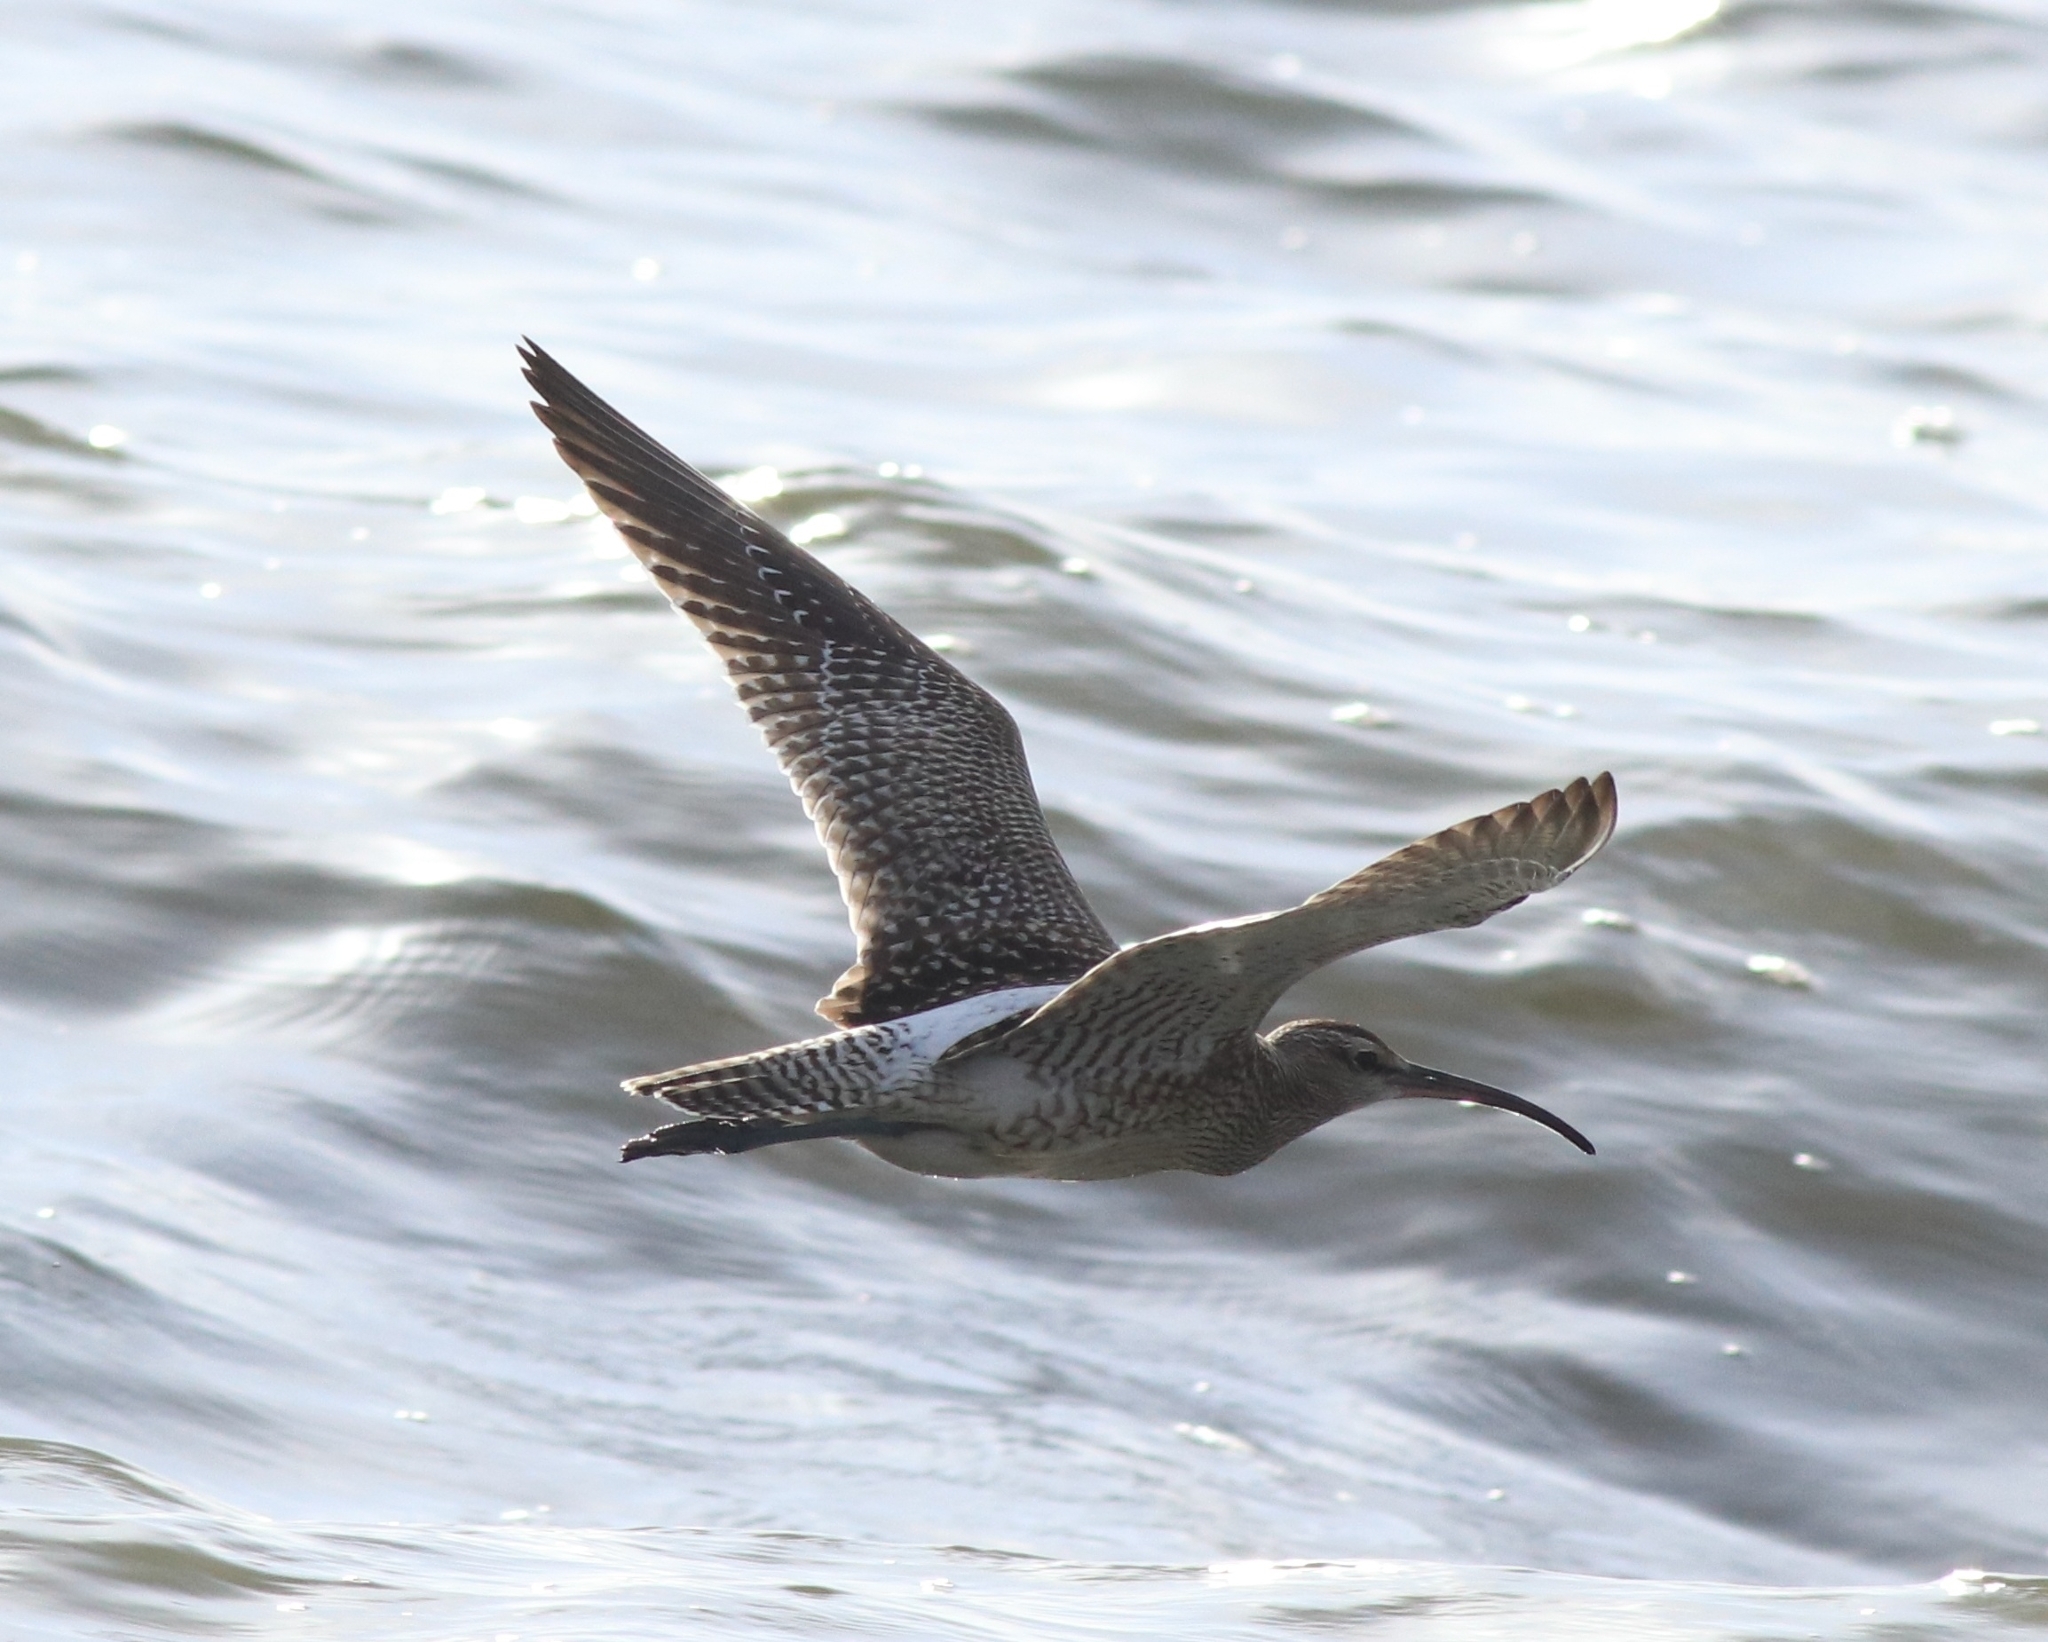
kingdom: Animalia
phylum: Chordata
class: Aves
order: Charadriiformes
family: Scolopacidae
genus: Numenius
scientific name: Numenius phaeopus
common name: Whimbrel
